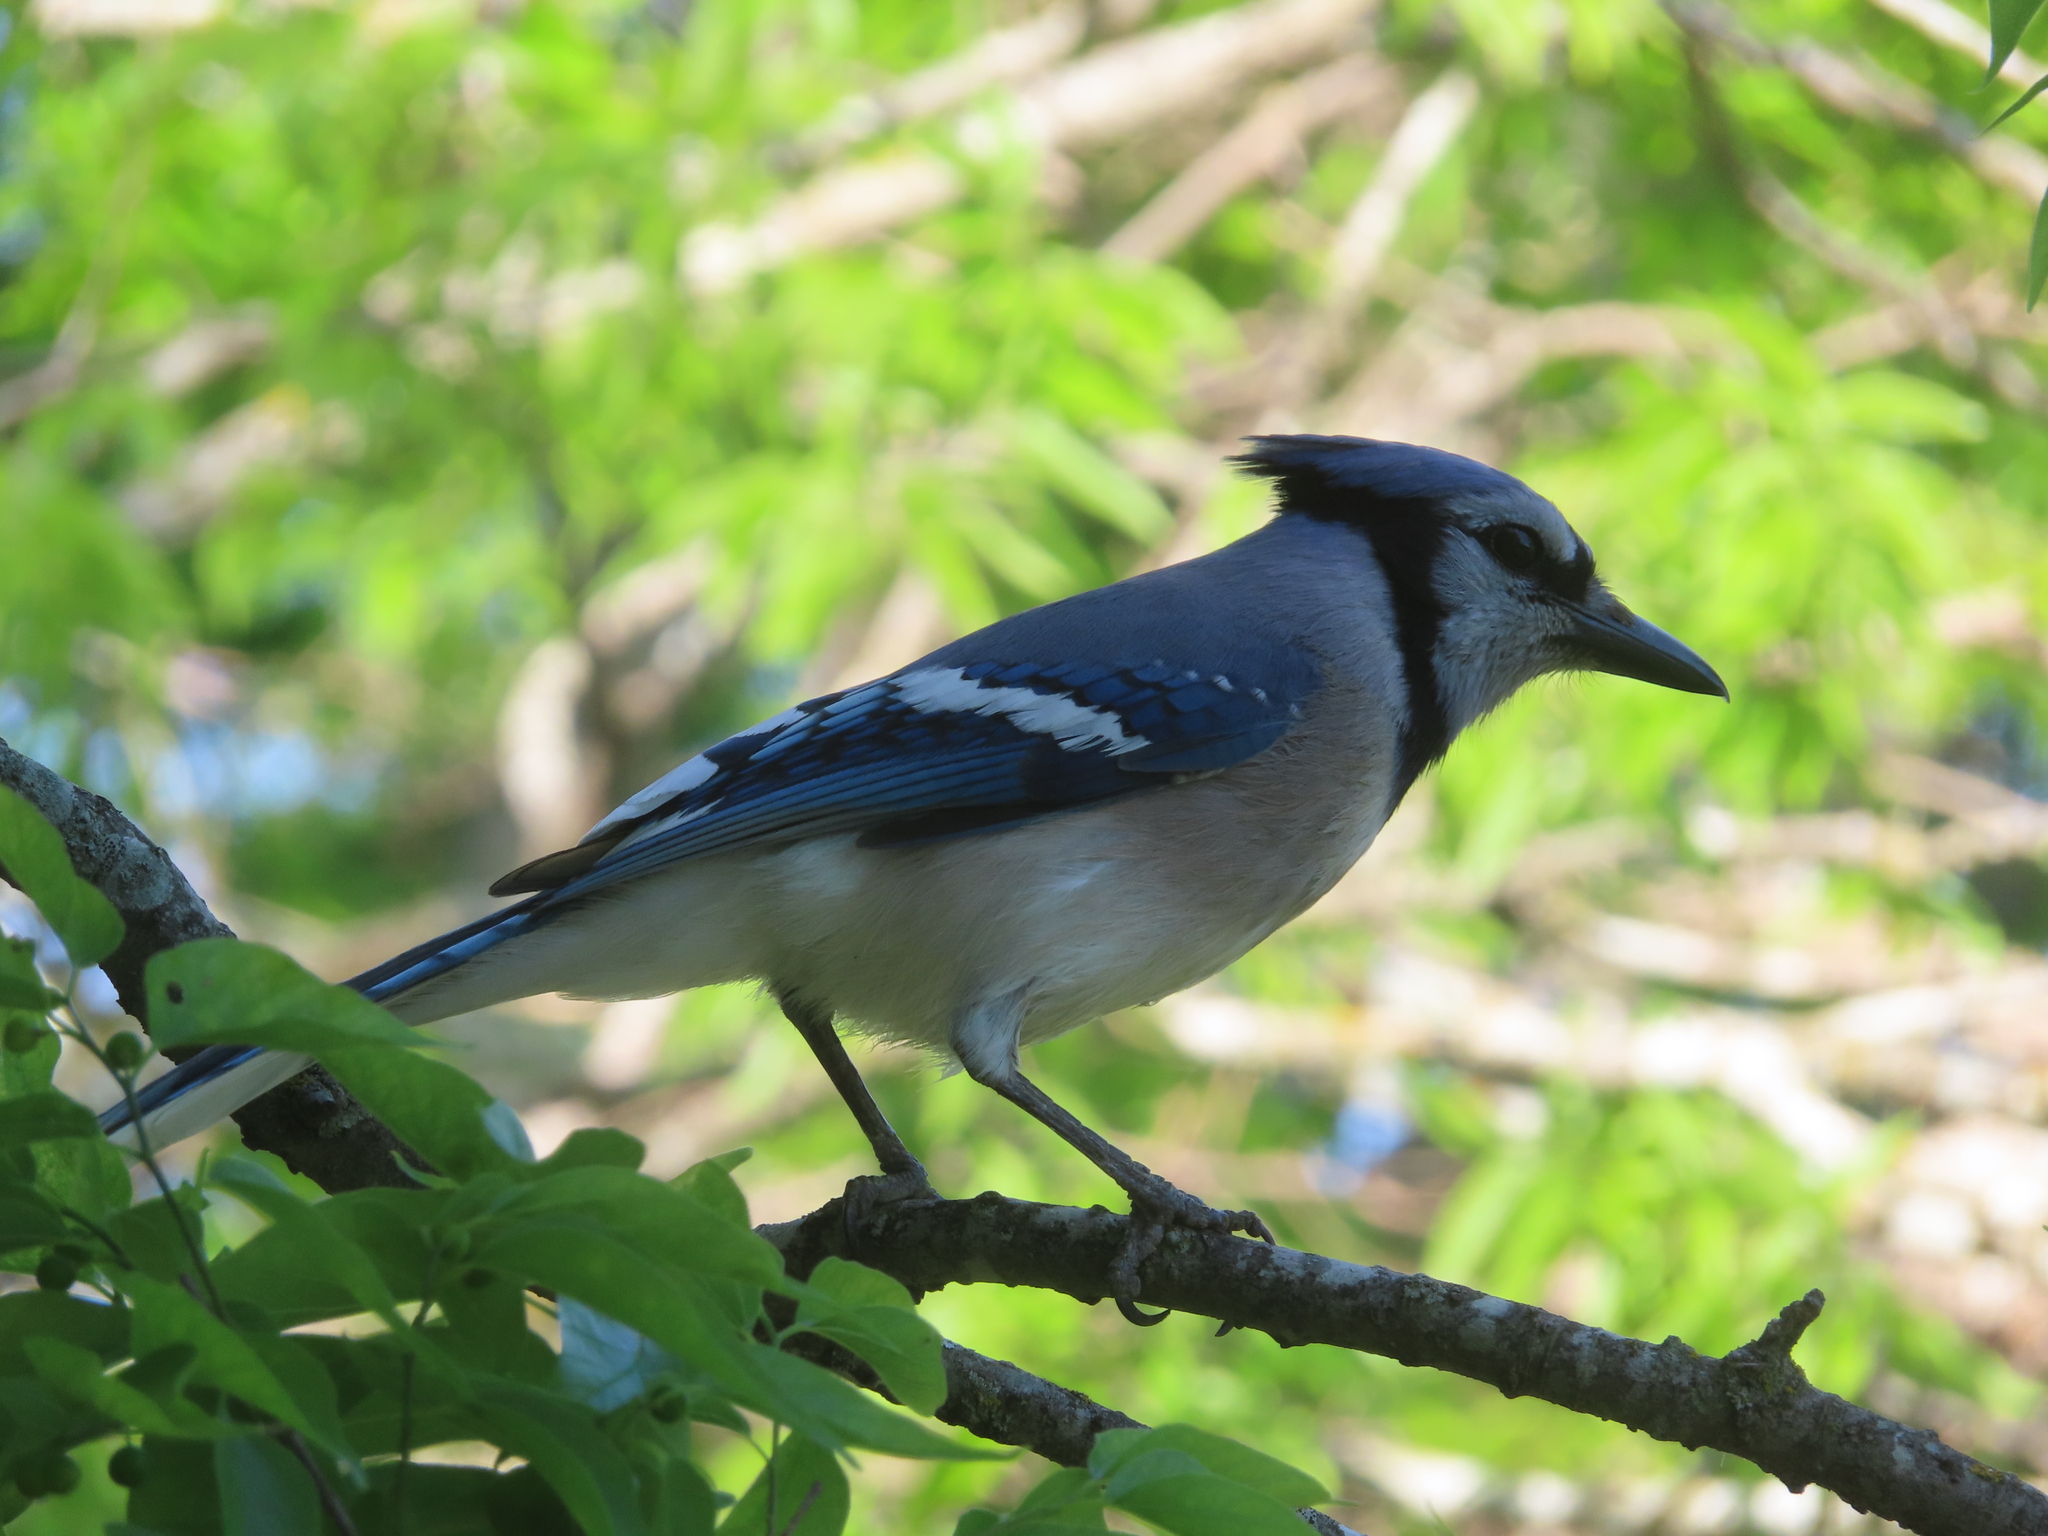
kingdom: Animalia
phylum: Chordata
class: Aves
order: Passeriformes
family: Corvidae
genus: Cyanocitta
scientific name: Cyanocitta cristata
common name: Blue jay
